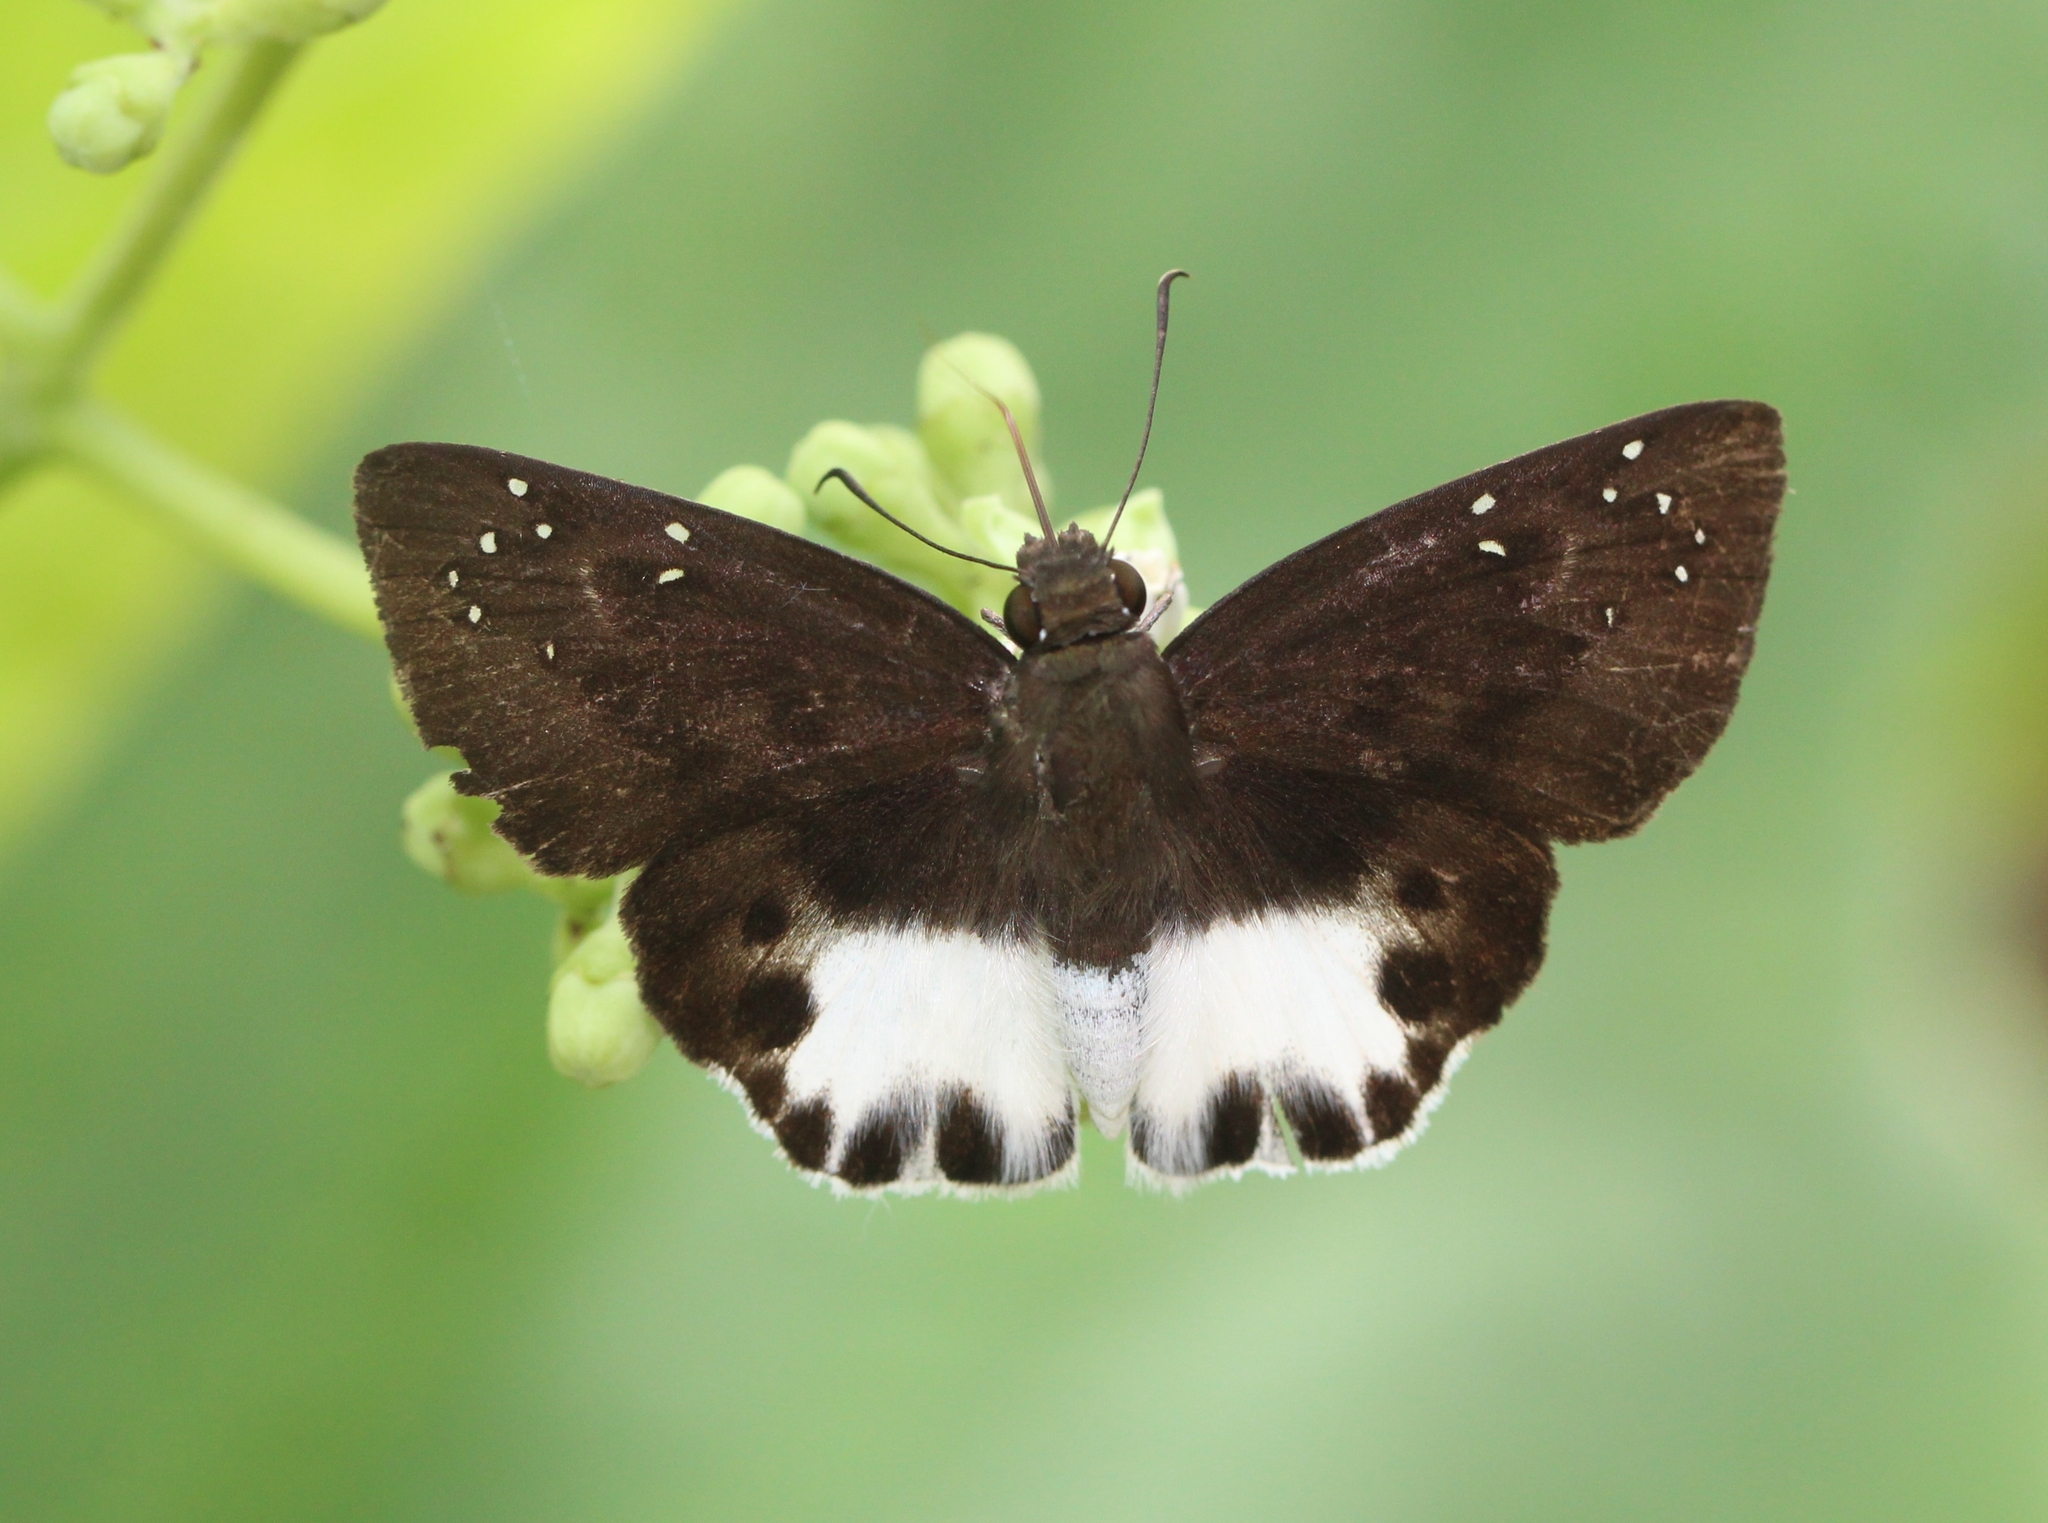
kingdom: Animalia
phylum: Arthropoda
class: Insecta
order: Lepidoptera
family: Hesperiidae
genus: Tagiades
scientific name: Tagiades litigiosa
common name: Water snow flat
